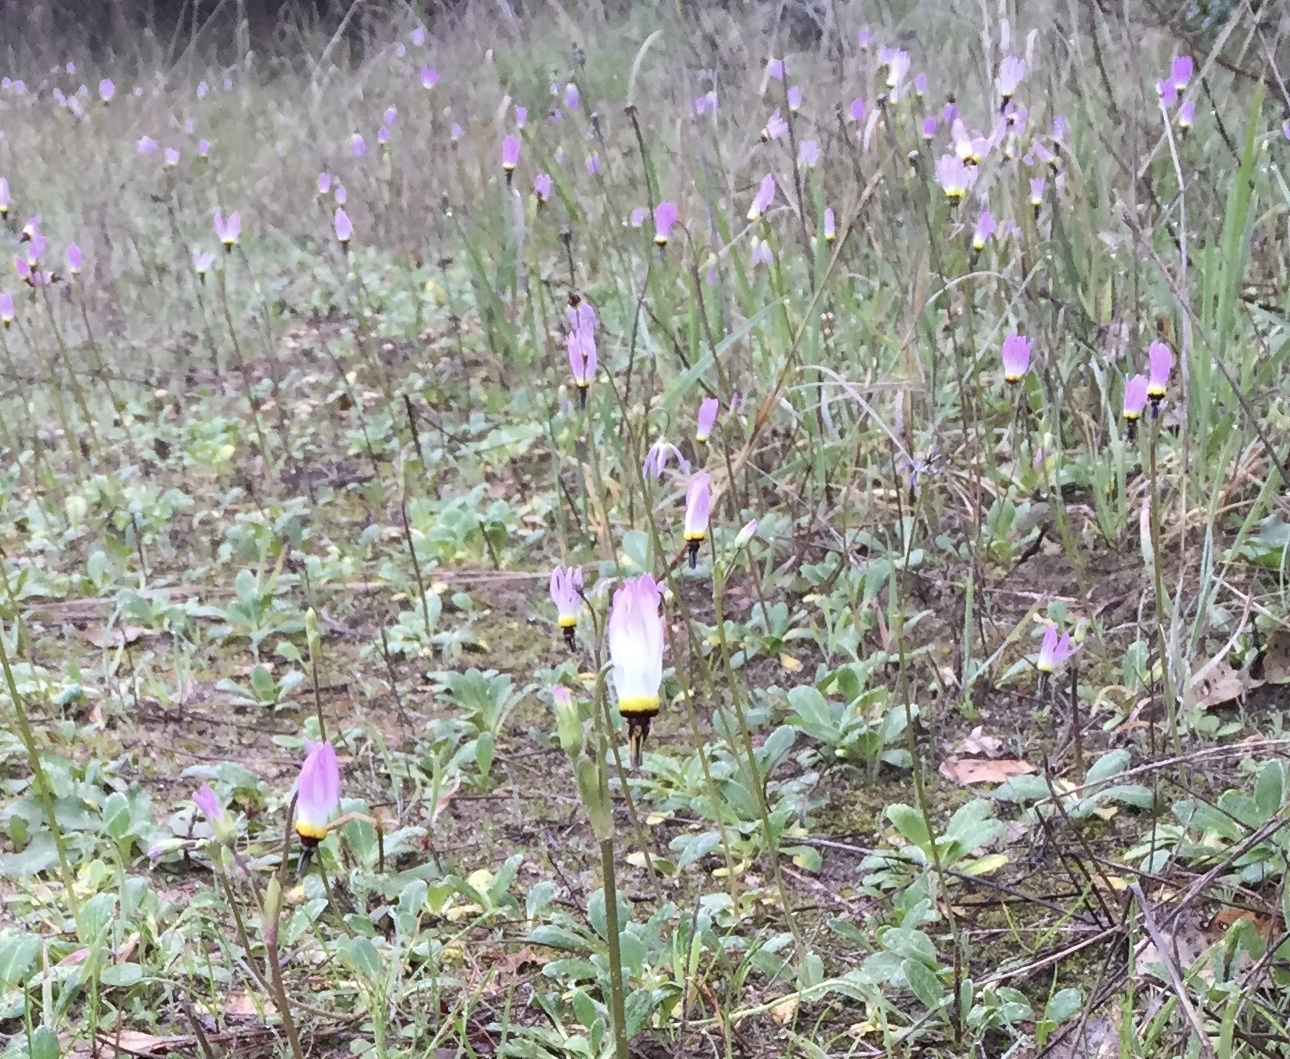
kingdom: Plantae
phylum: Tracheophyta
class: Magnoliopsida
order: Ericales
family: Primulaceae
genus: Dodecatheon
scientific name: Dodecatheon clevelandii
